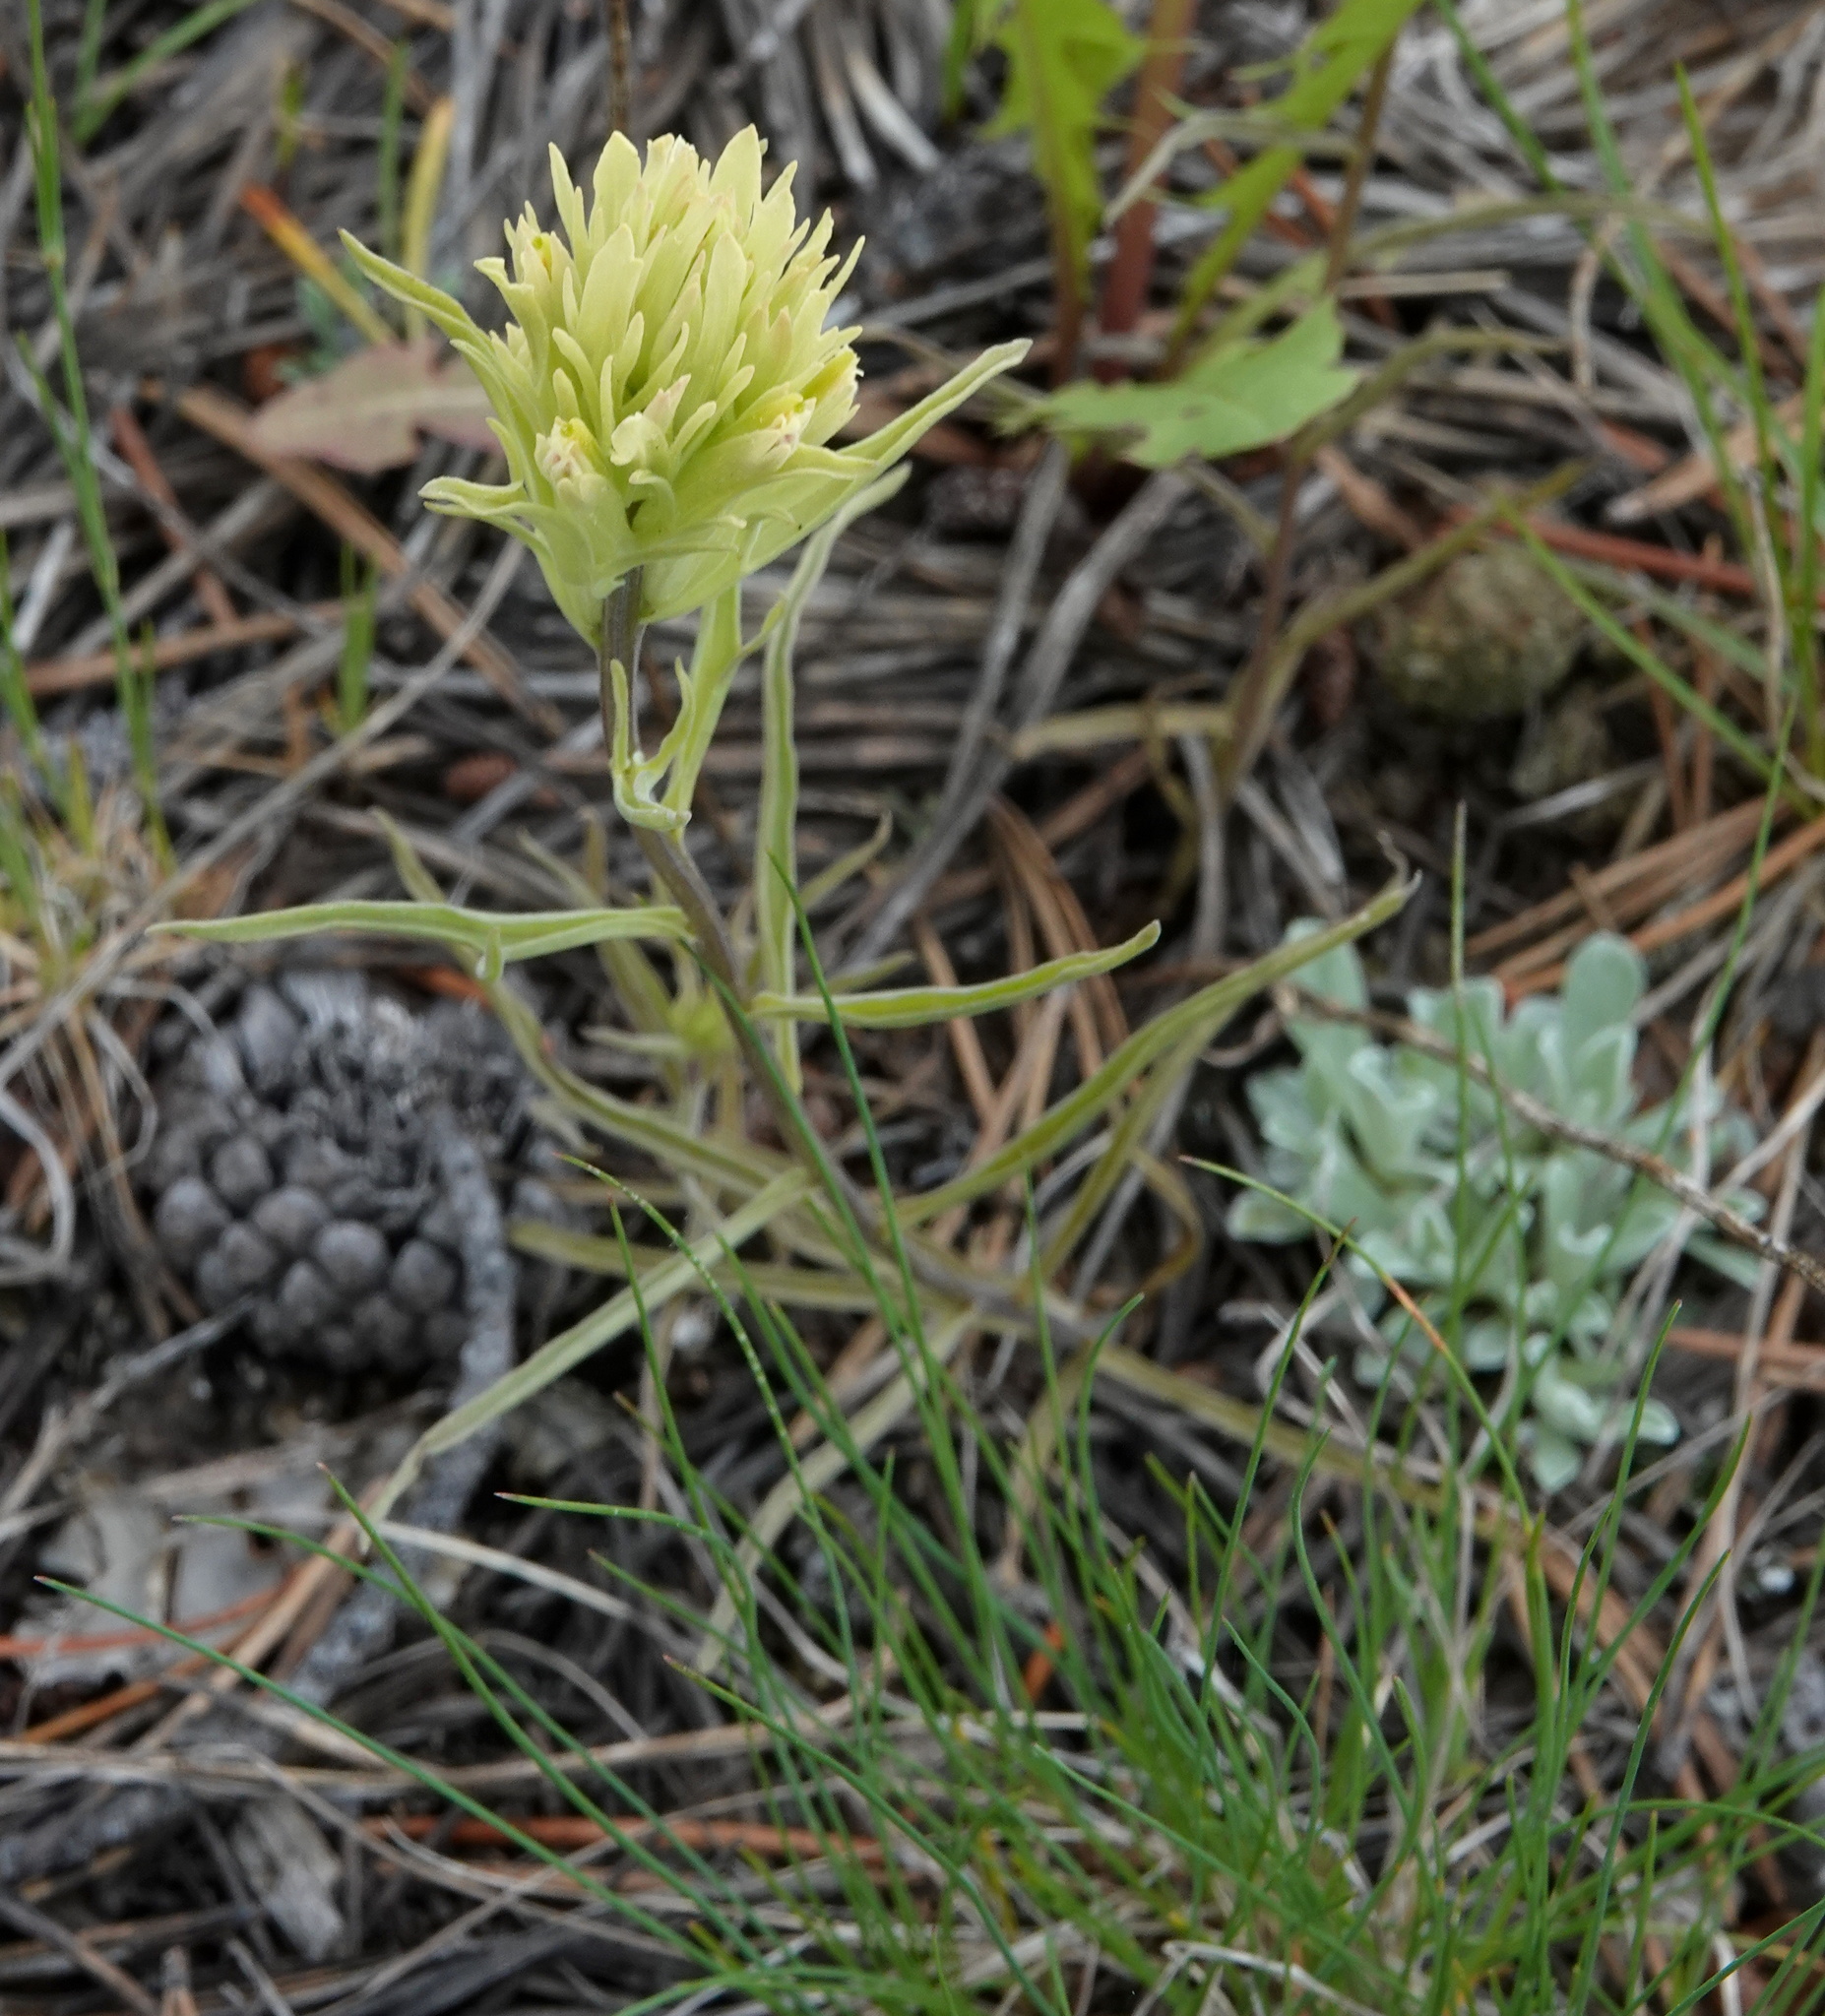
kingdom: Plantae
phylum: Tracheophyta
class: Magnoliopsida
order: Lamiales
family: Orobanchaceae
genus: Castilleja
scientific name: Castilleja pallescens
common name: Pale paintbrush
